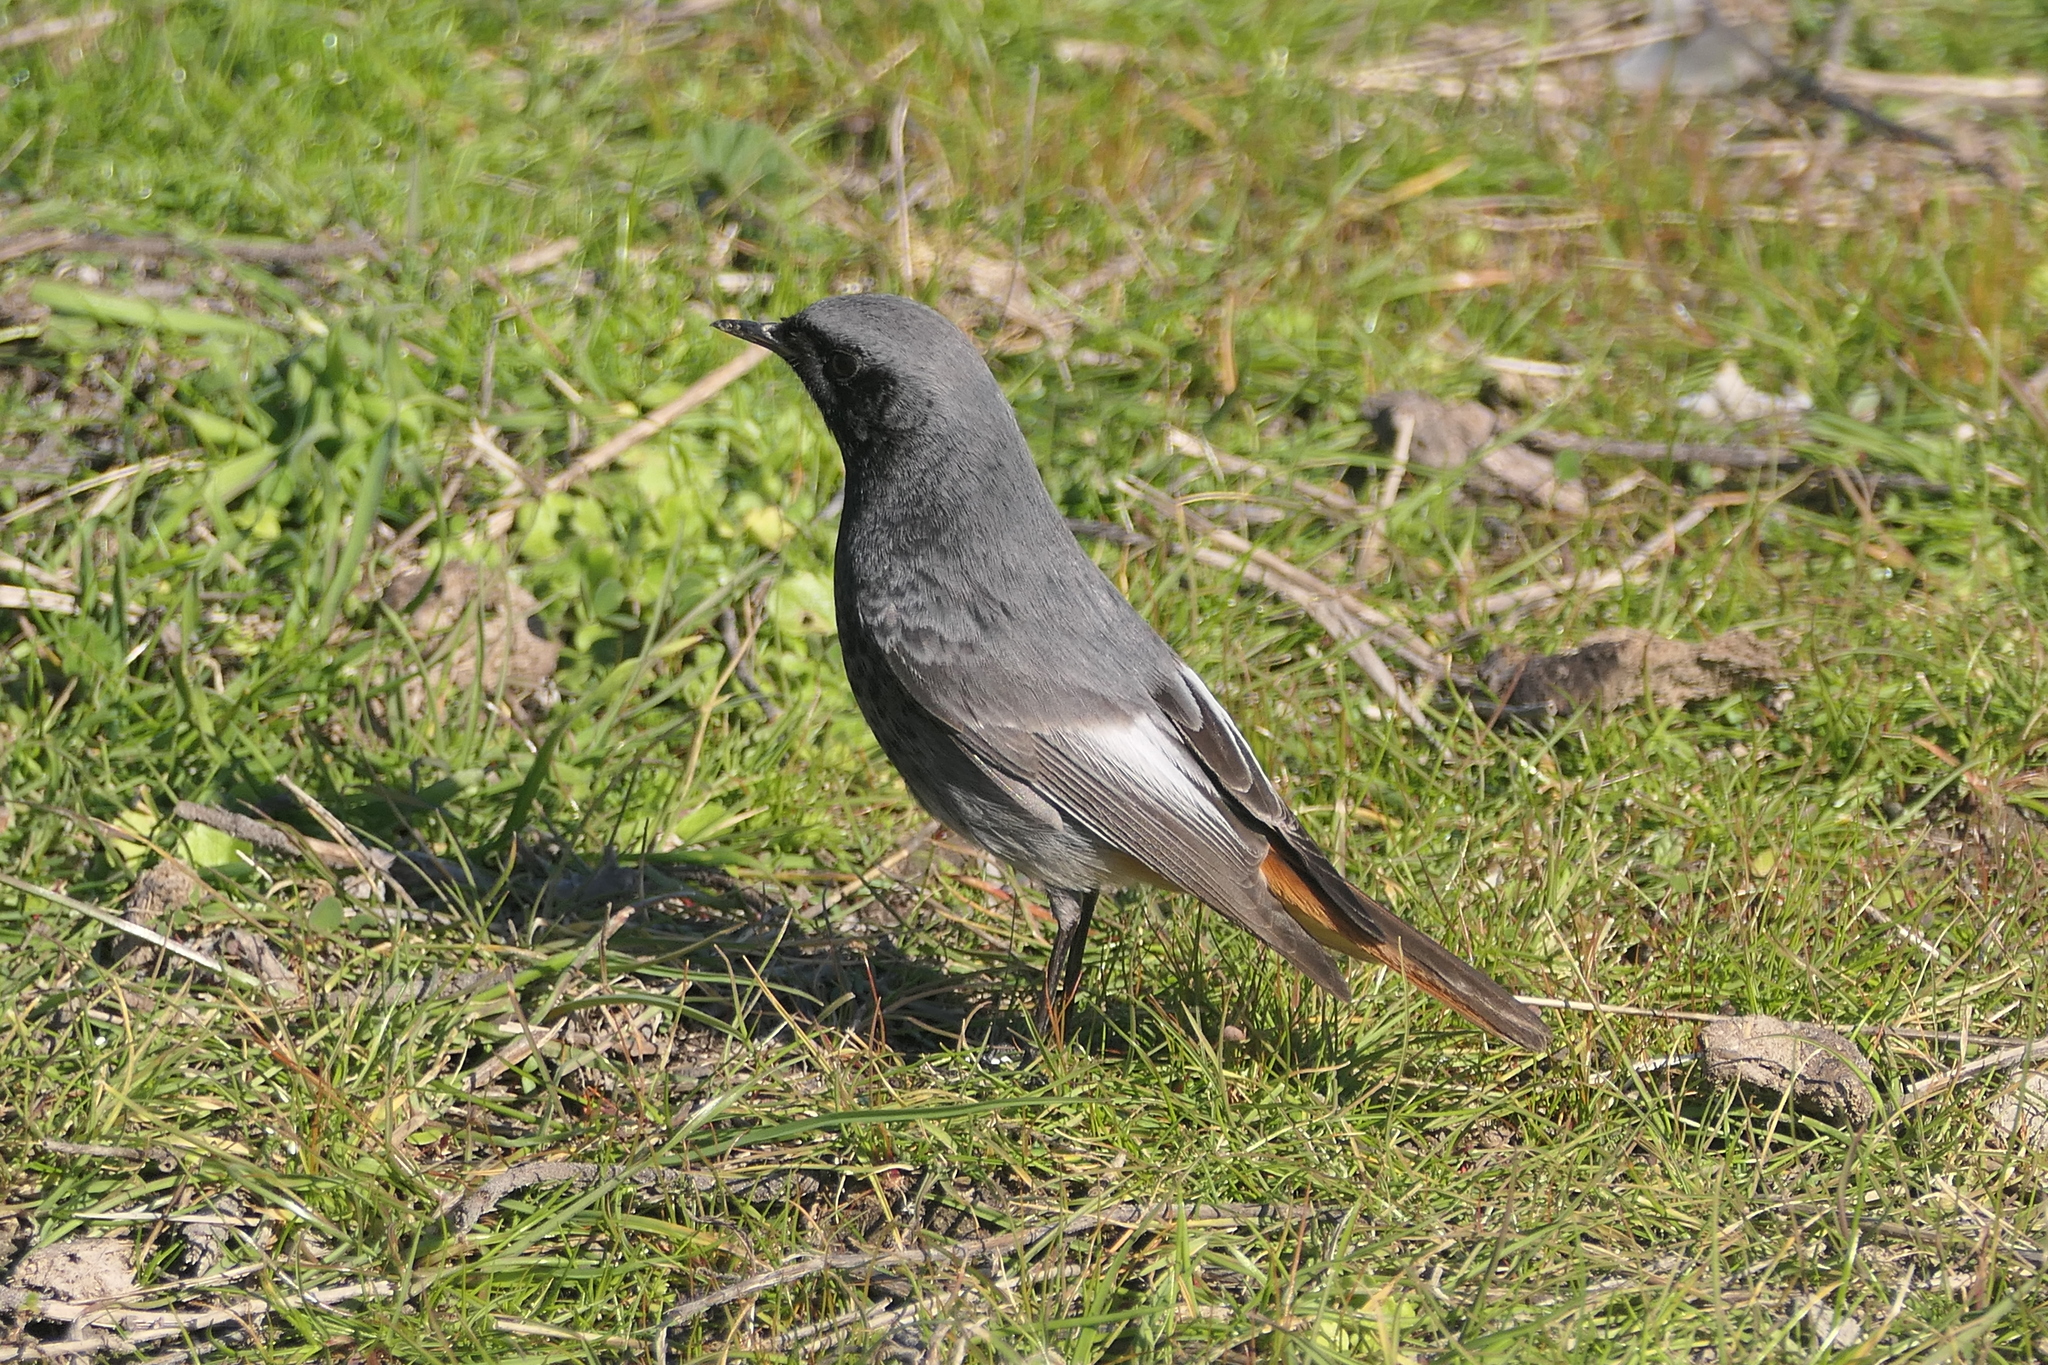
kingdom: Animalia
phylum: Chordata
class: Aves
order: Passeriformes
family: Muscicapidae
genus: Phoenicurus
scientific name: Phoenicurus ochruros
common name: Black redstart
